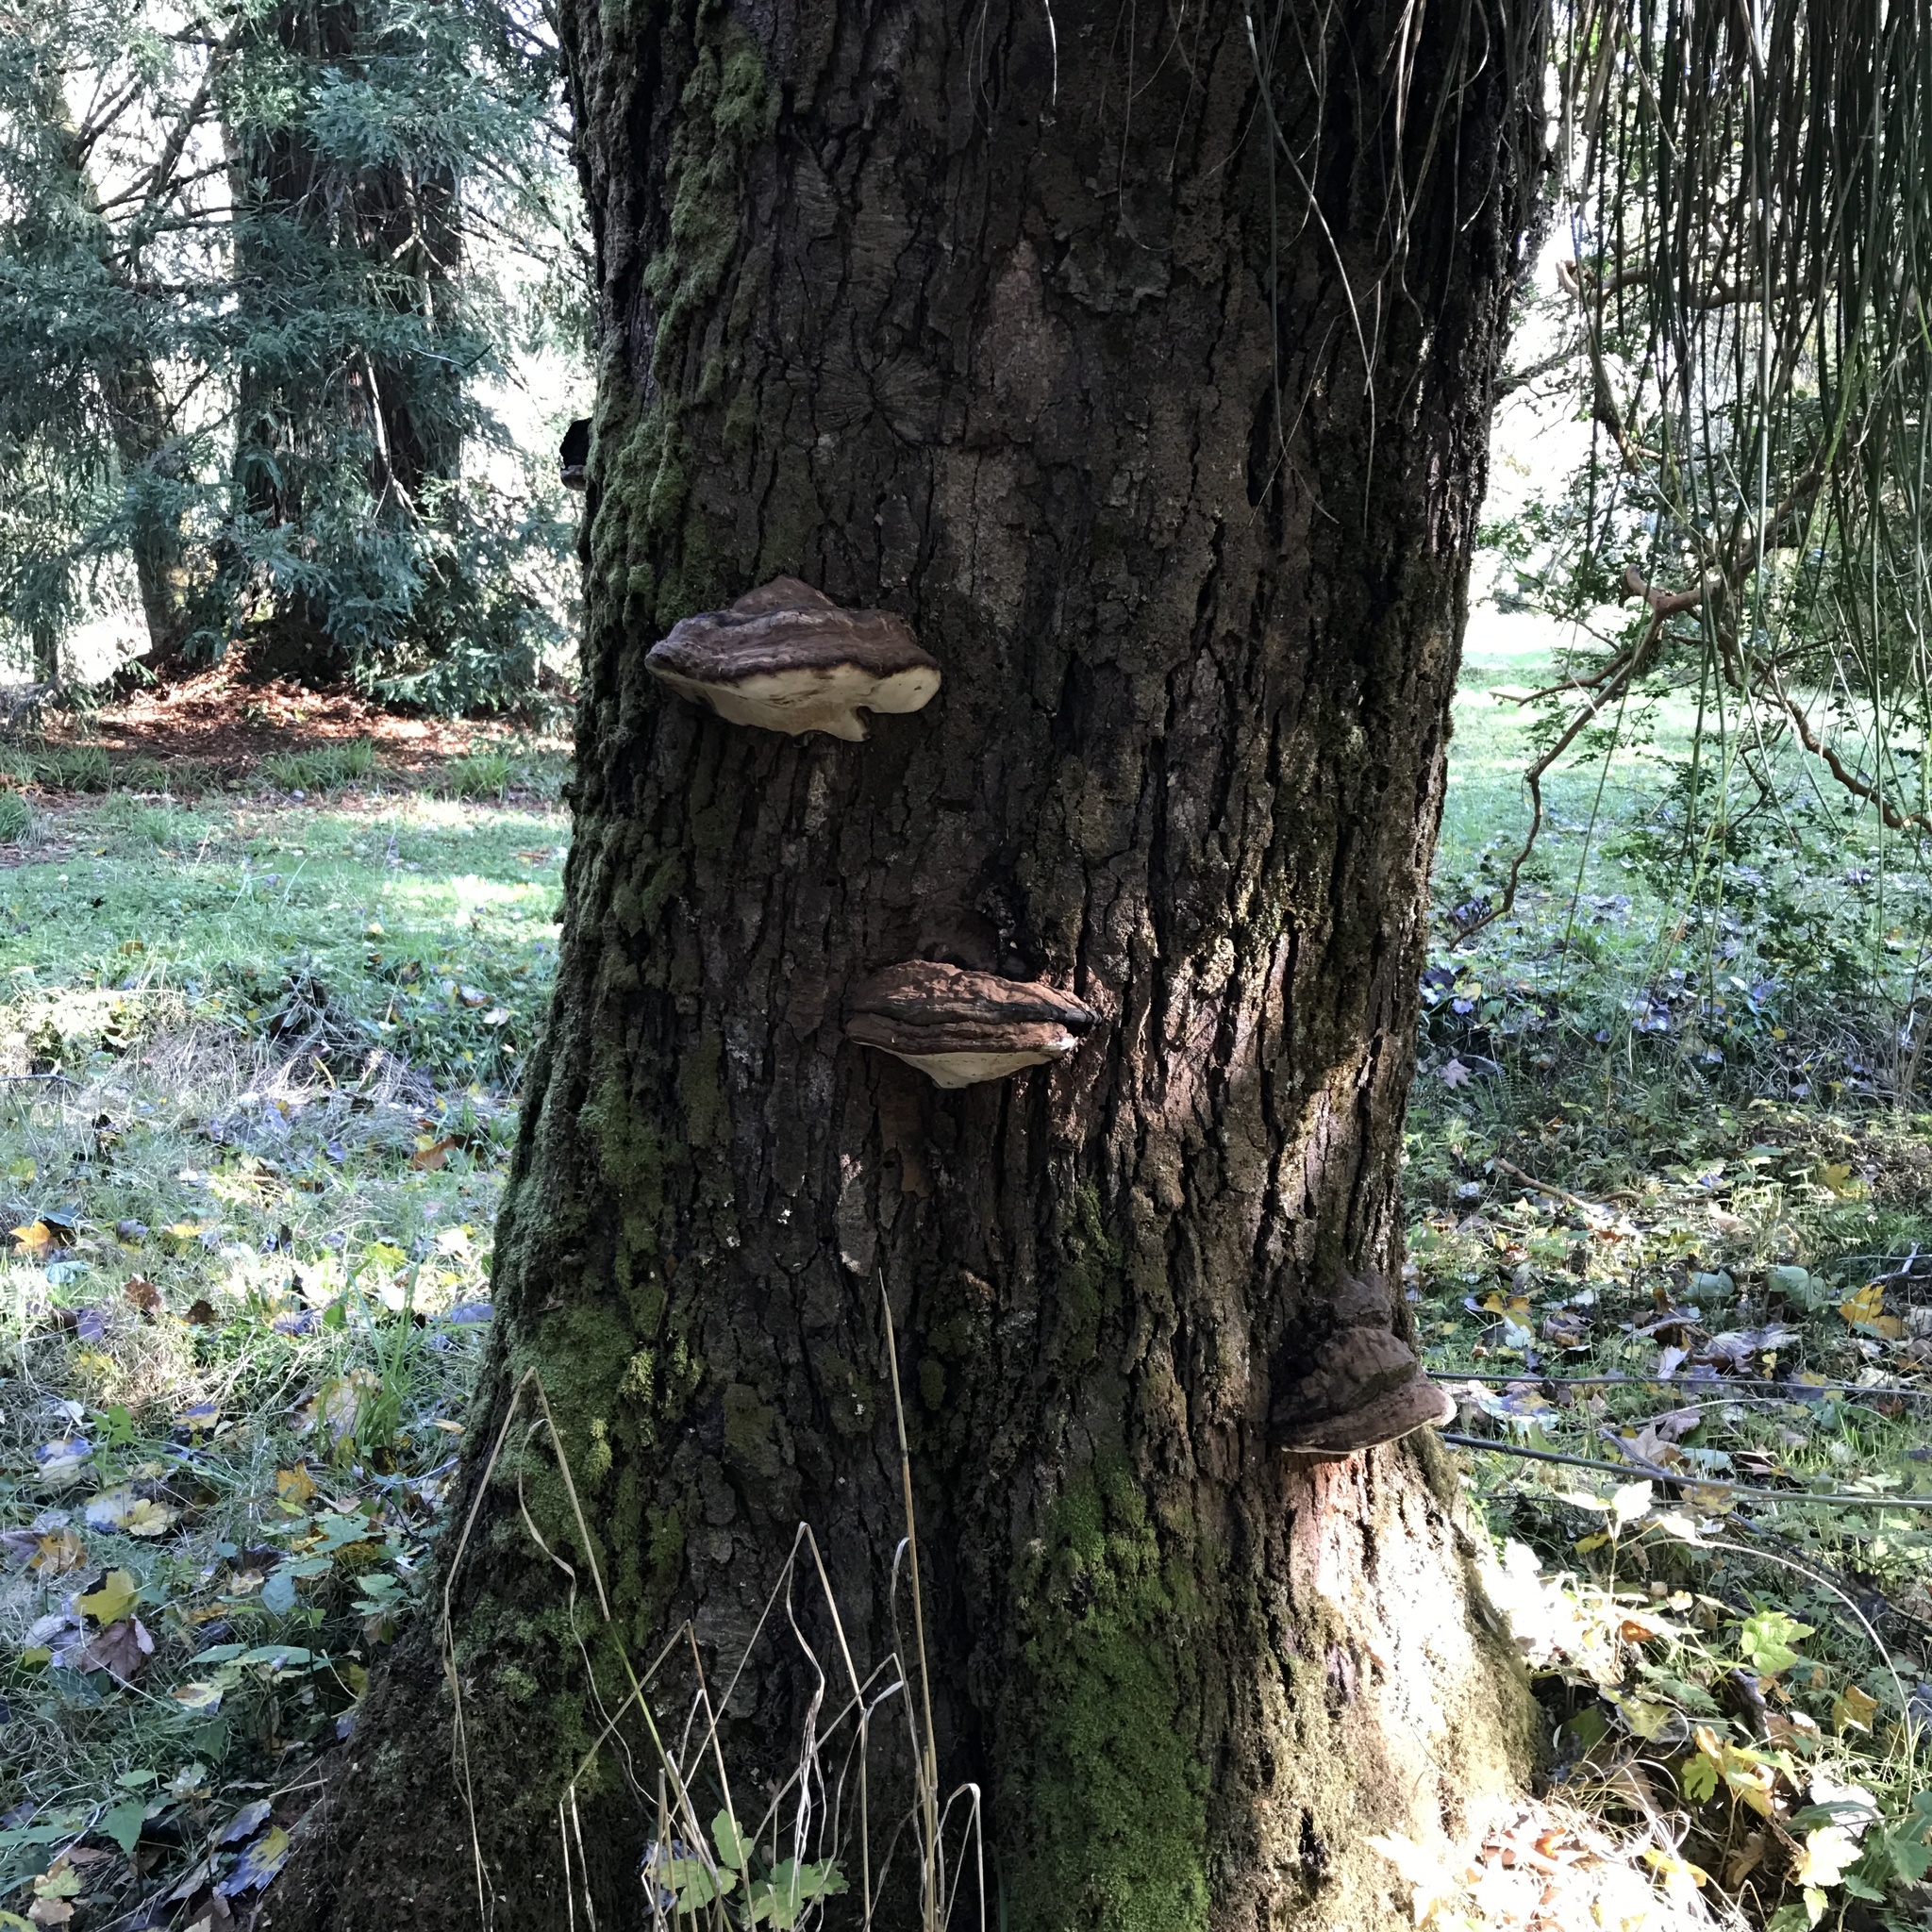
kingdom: Fungi
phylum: Basidiomycota
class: Agaricomycetes
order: Polyporales
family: Polyporaceae
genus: Ganoderma
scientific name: Ganoderma australe
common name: Southern bracket
